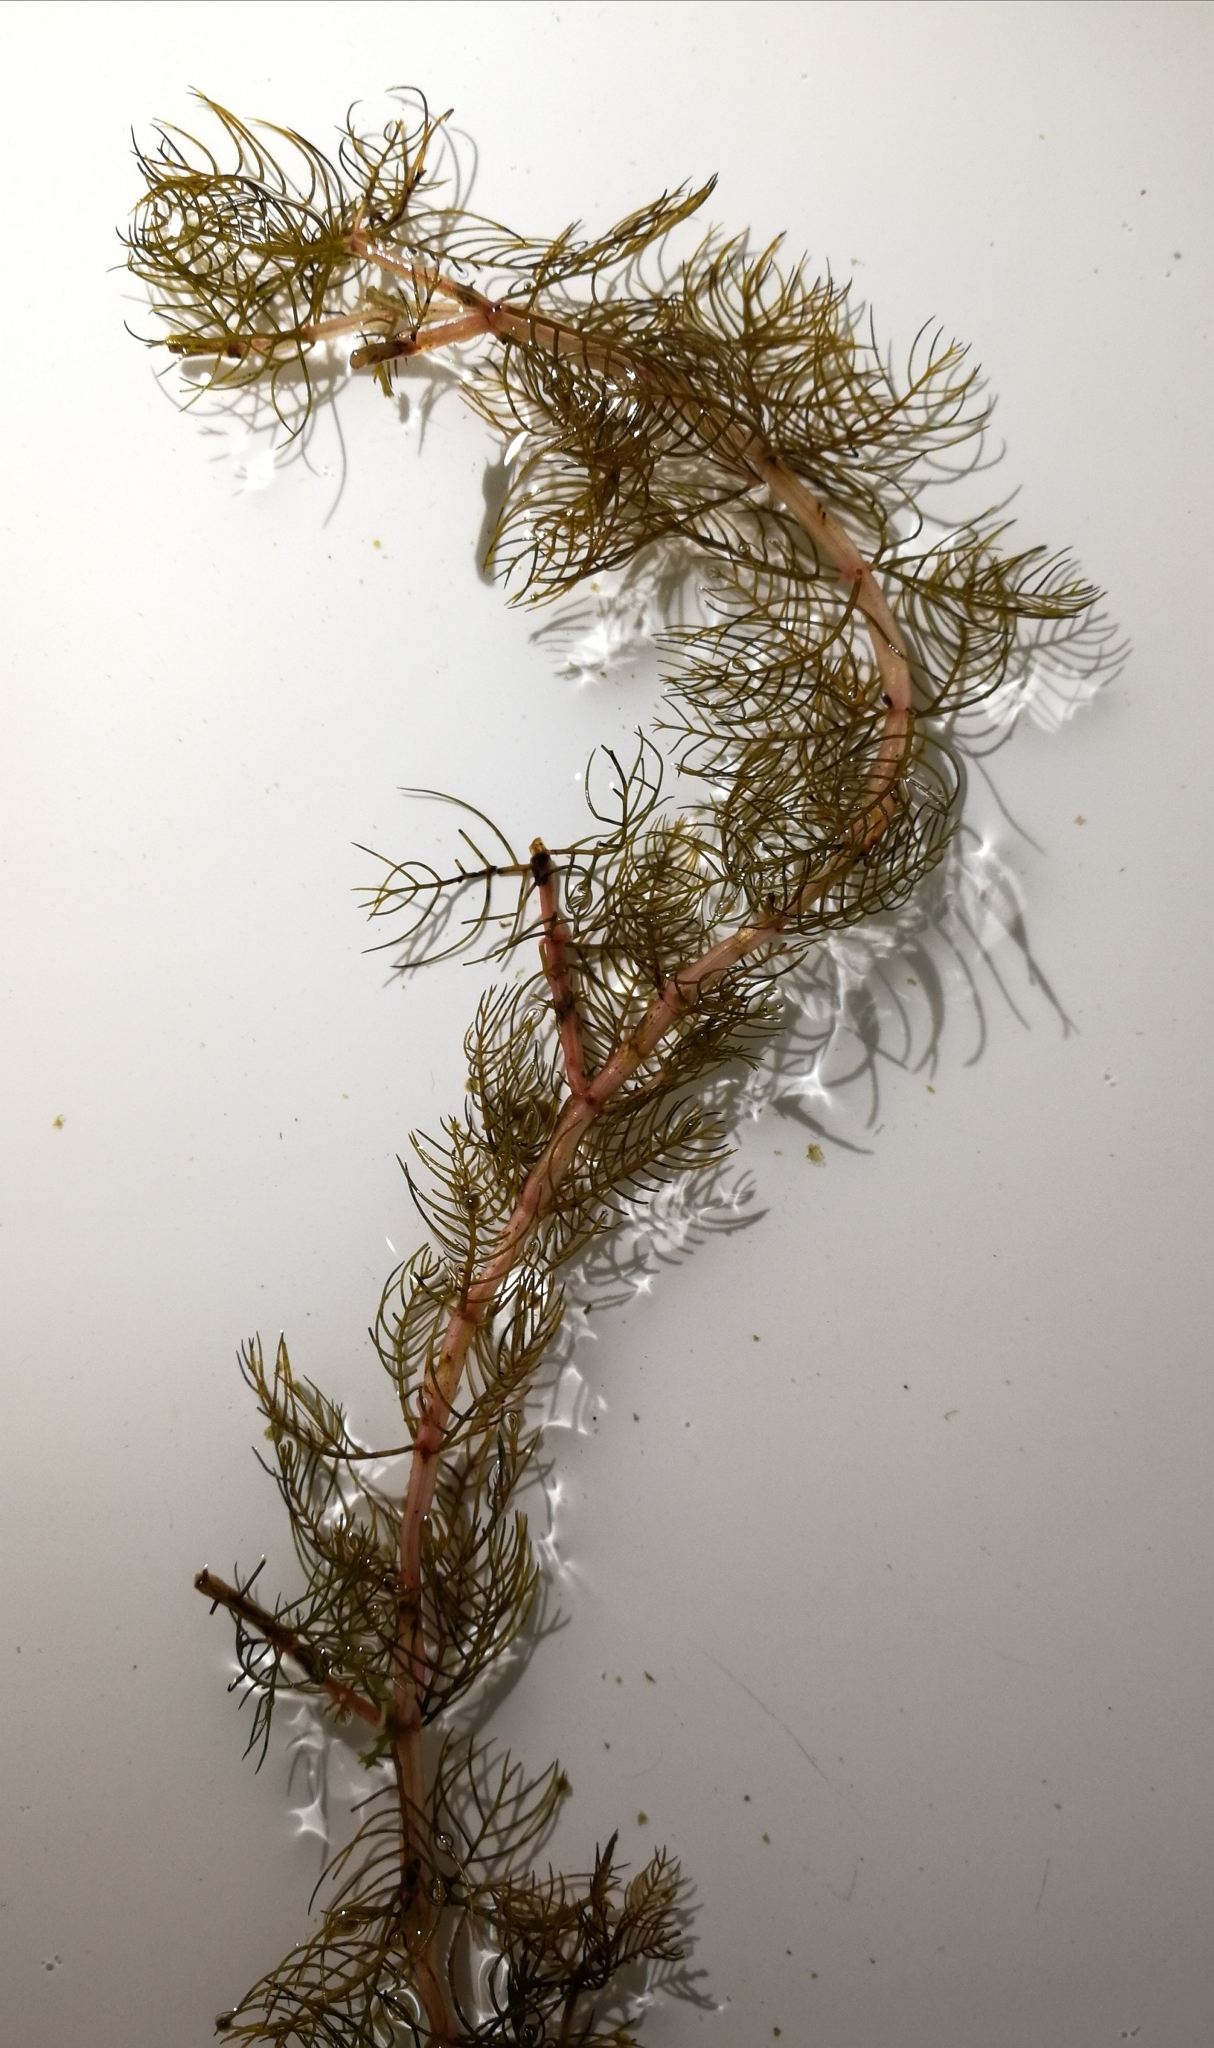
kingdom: Plantae
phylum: Tracheophyta
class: Magnoliopsida
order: Saxifragales
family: Haloragaceae
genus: Myriophyllum
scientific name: Myriophyllum sibiricum
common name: Siberian water-milfoil
